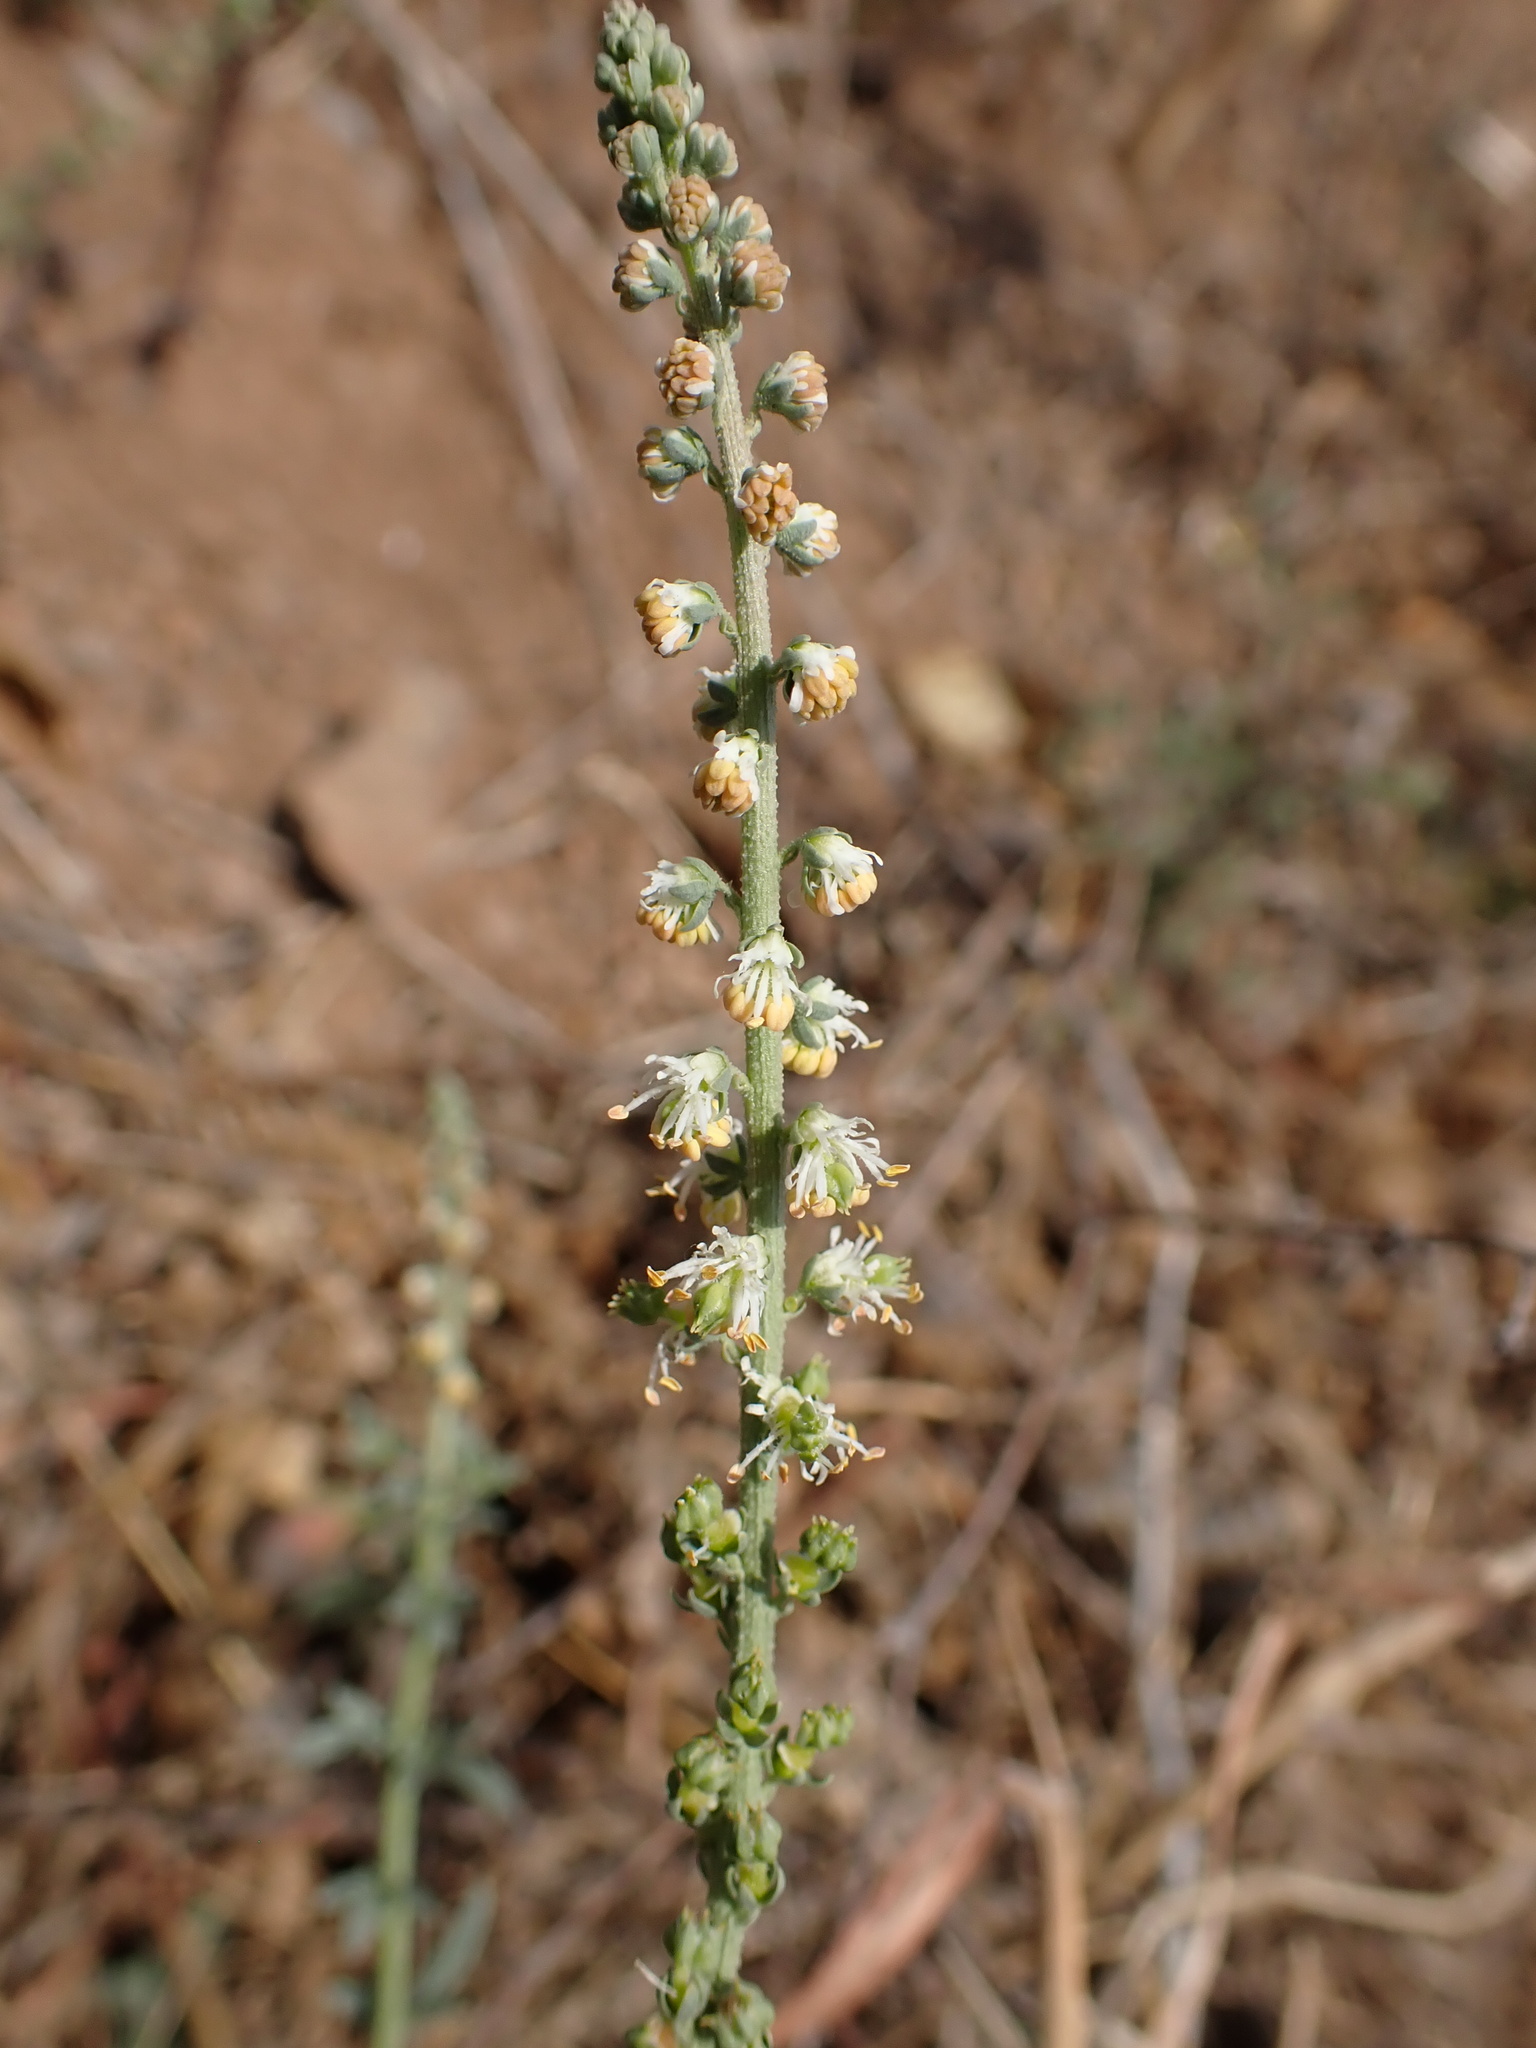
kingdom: Plantae
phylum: Tracheophyta
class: Magnoliopsida
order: Brassicales
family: Resedaceae
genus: Caylusea
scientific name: Caylusea hexagyna
